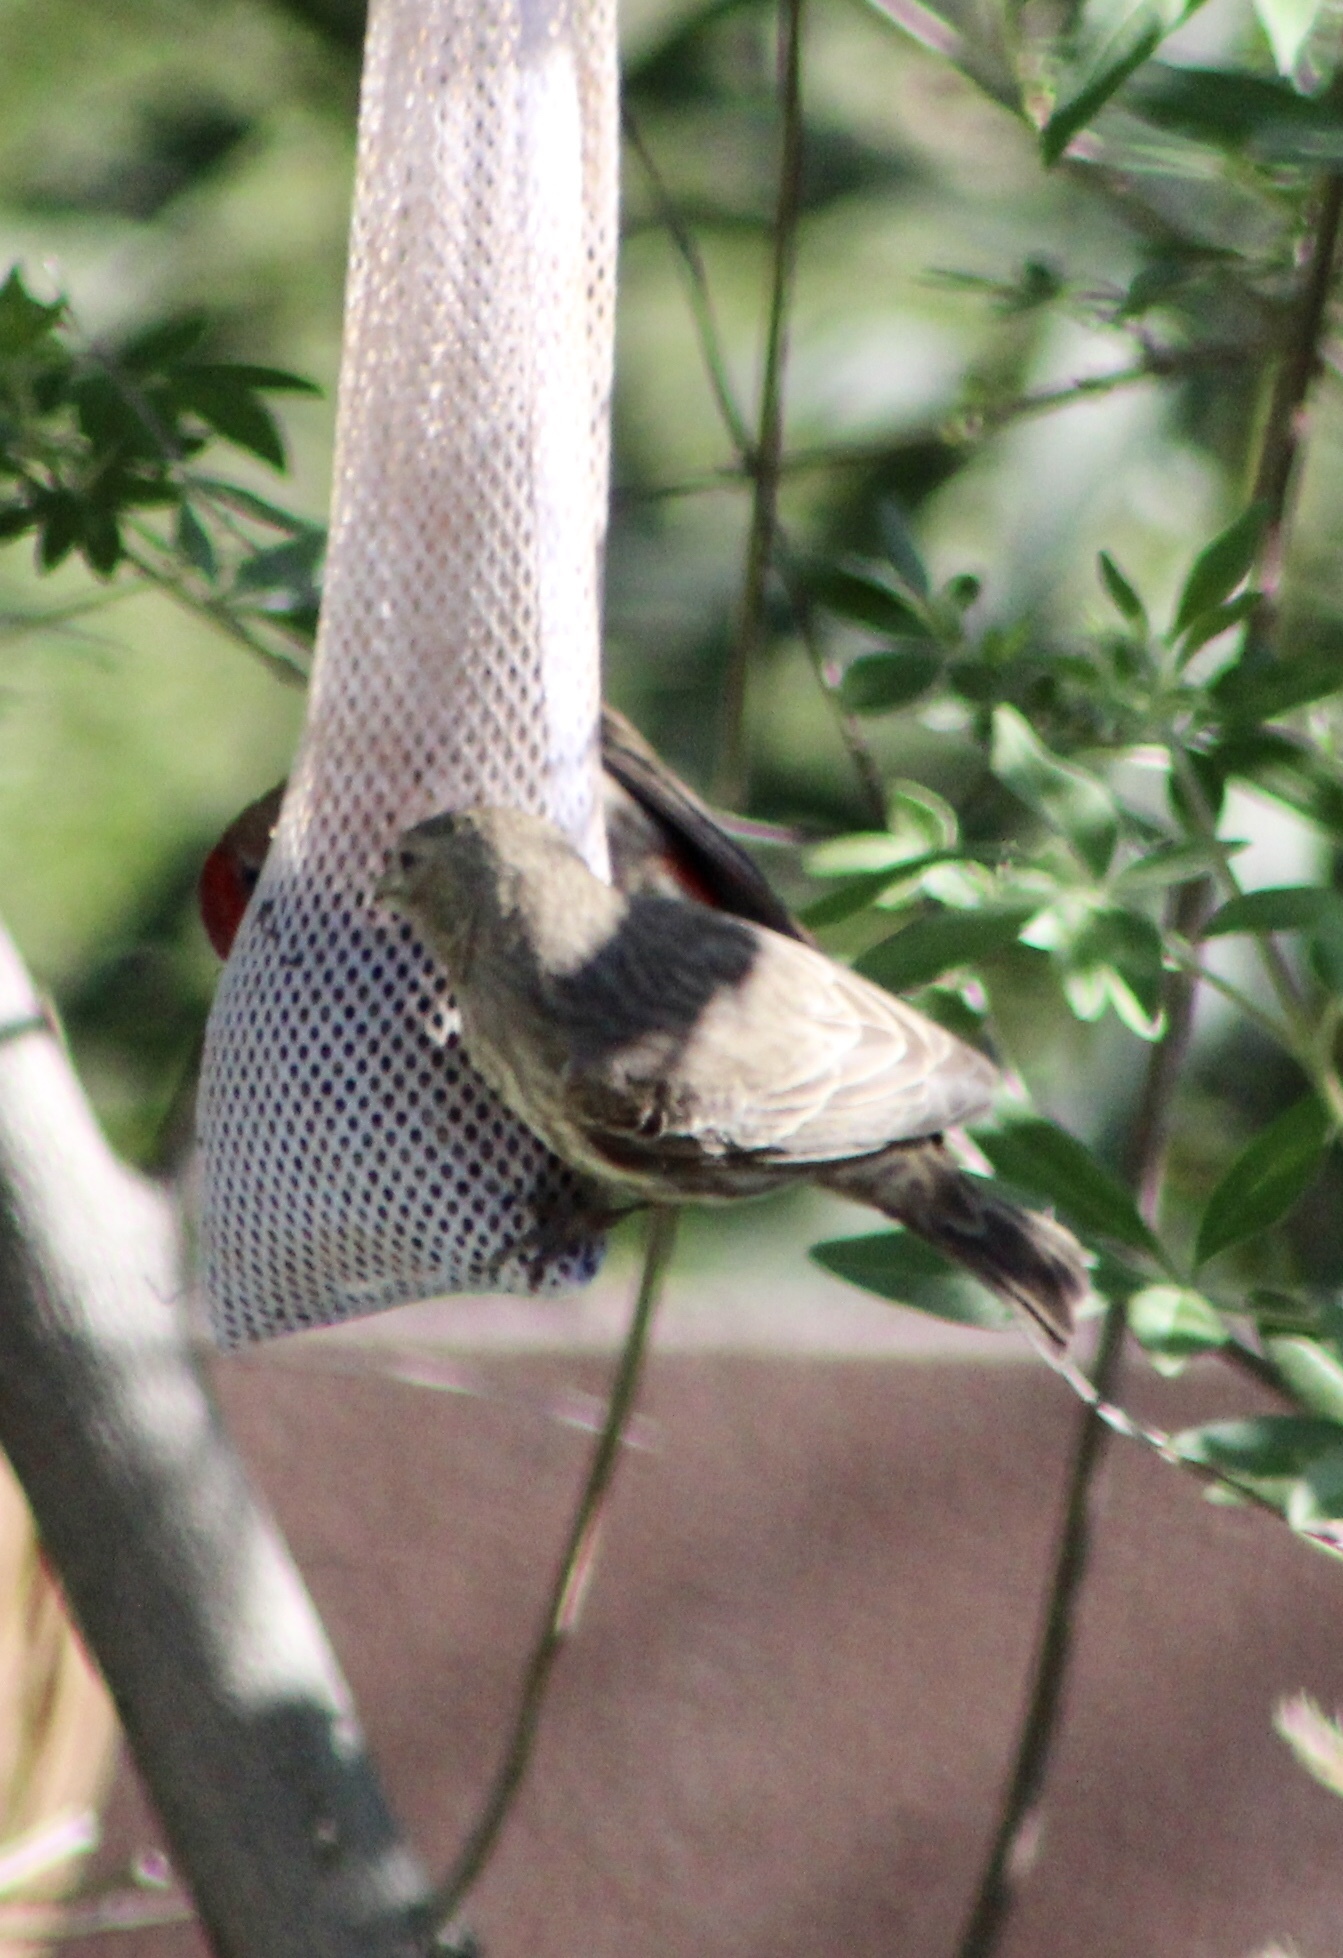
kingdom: Animalia
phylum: Chordata
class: Aves
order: Passeriformes
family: Fringillidae
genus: Haemorhous
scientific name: Haemorhous mexicanus
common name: House finch
